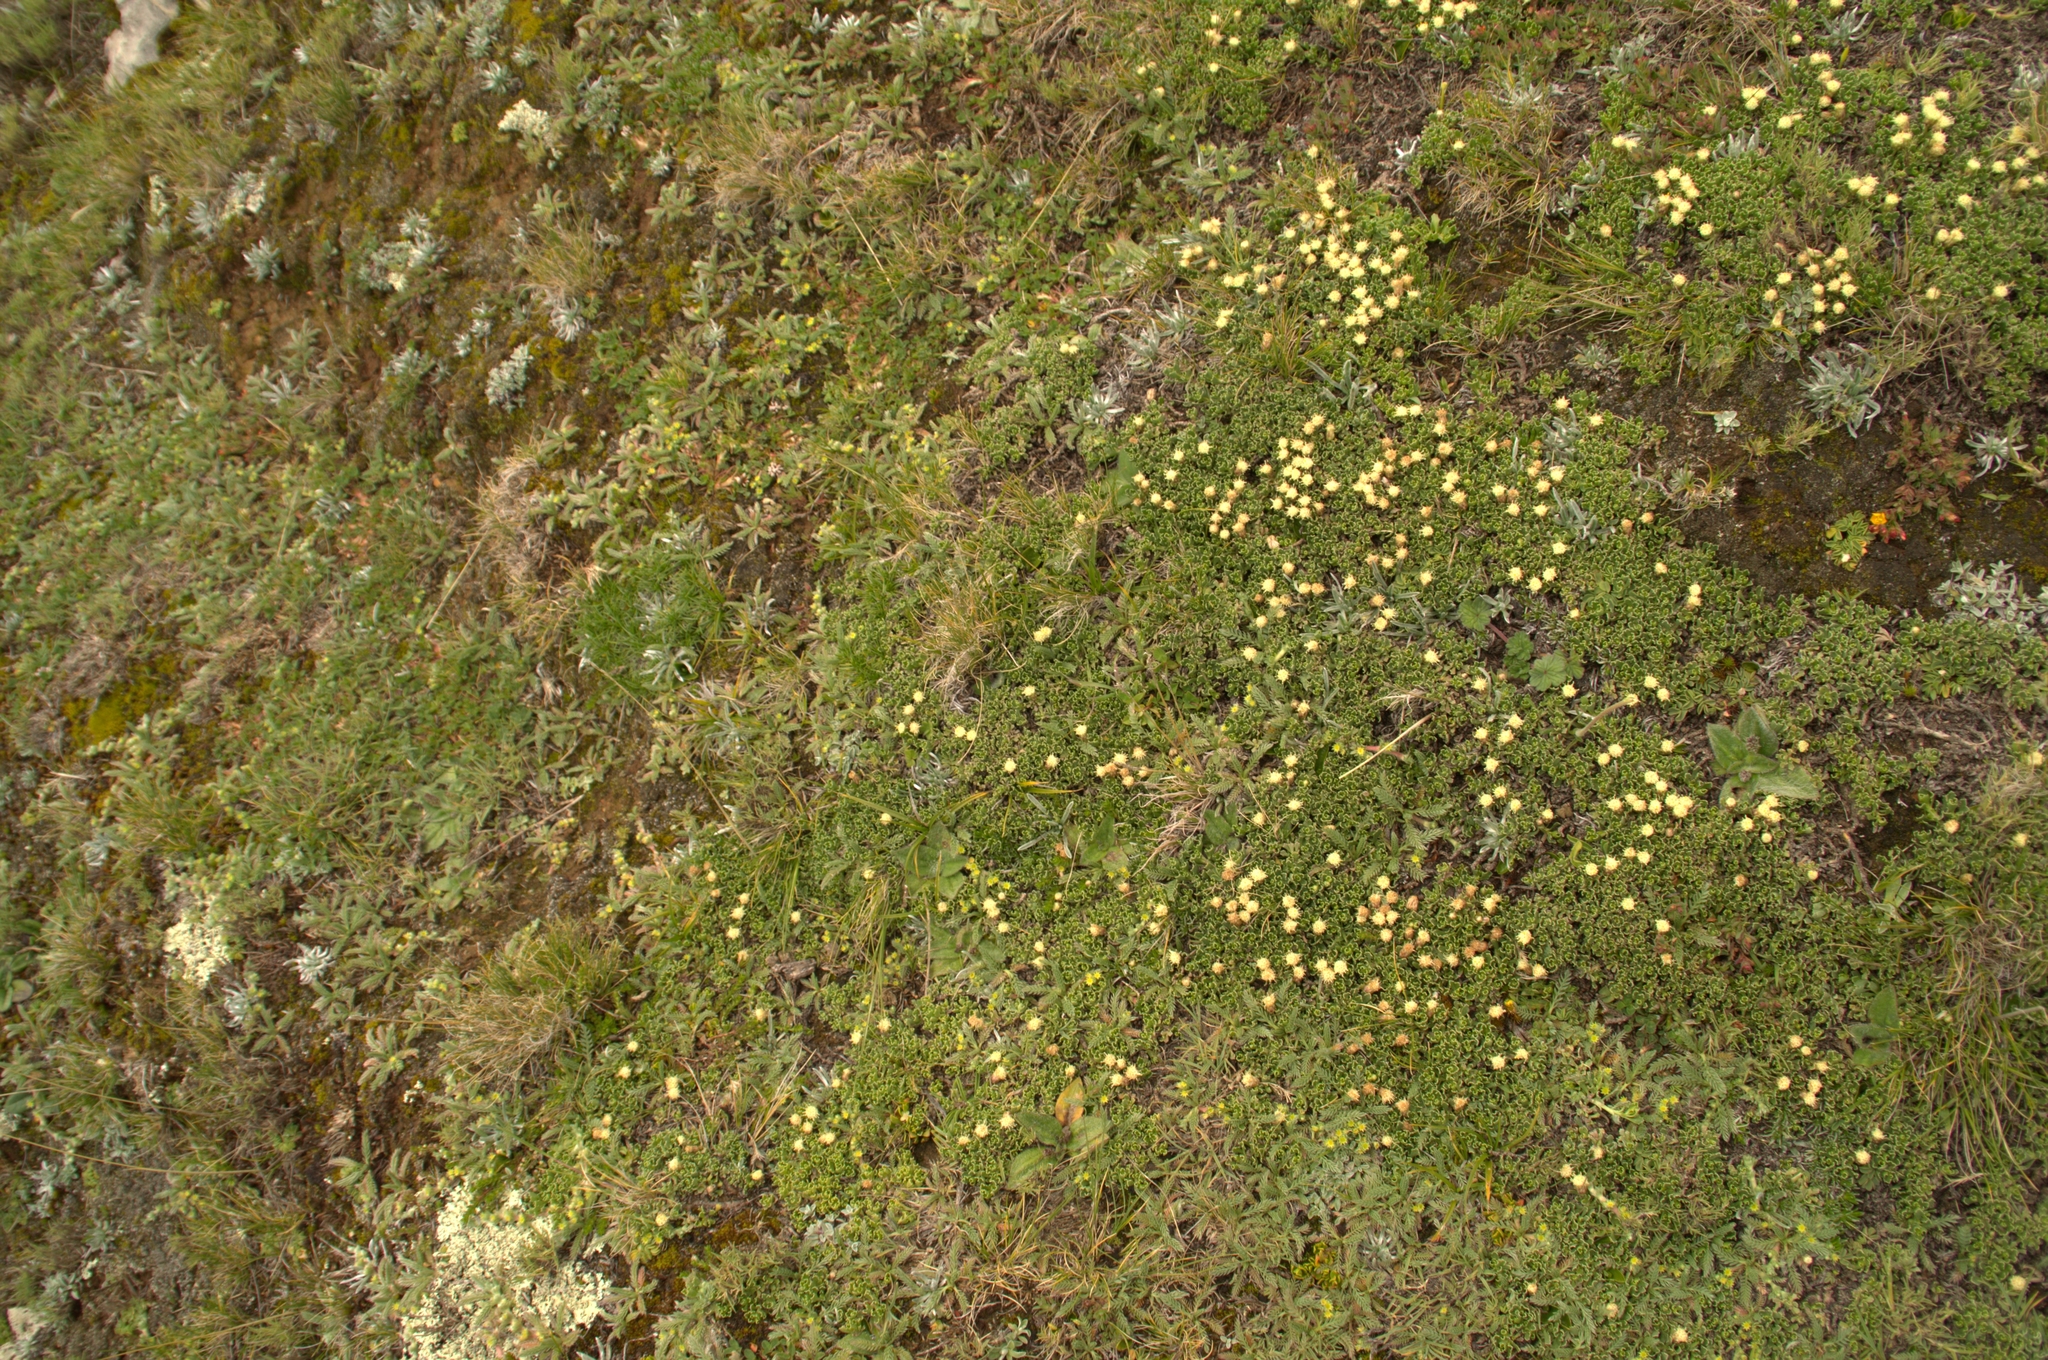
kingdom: Plantae
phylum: Tracheophyta
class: Magnoliopsida
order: Asterales
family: Asteraceae
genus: Baccharis
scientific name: Baccharis caespitosa
